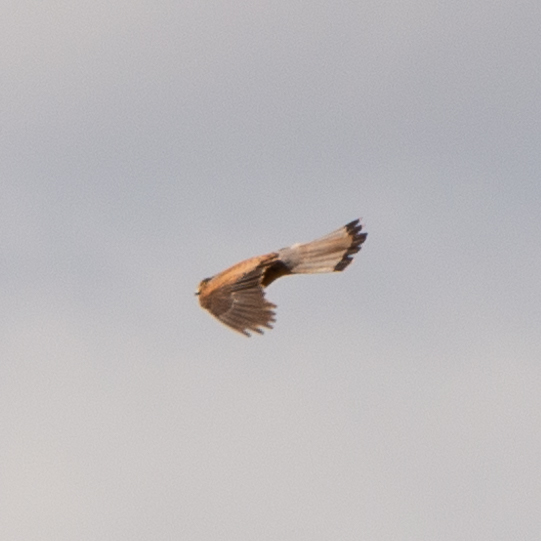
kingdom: Animalia
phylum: Chordata
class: Aves
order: Falconiformes
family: Falconidae
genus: Falco
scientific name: Falco tinnunculus
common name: Common kestrel
